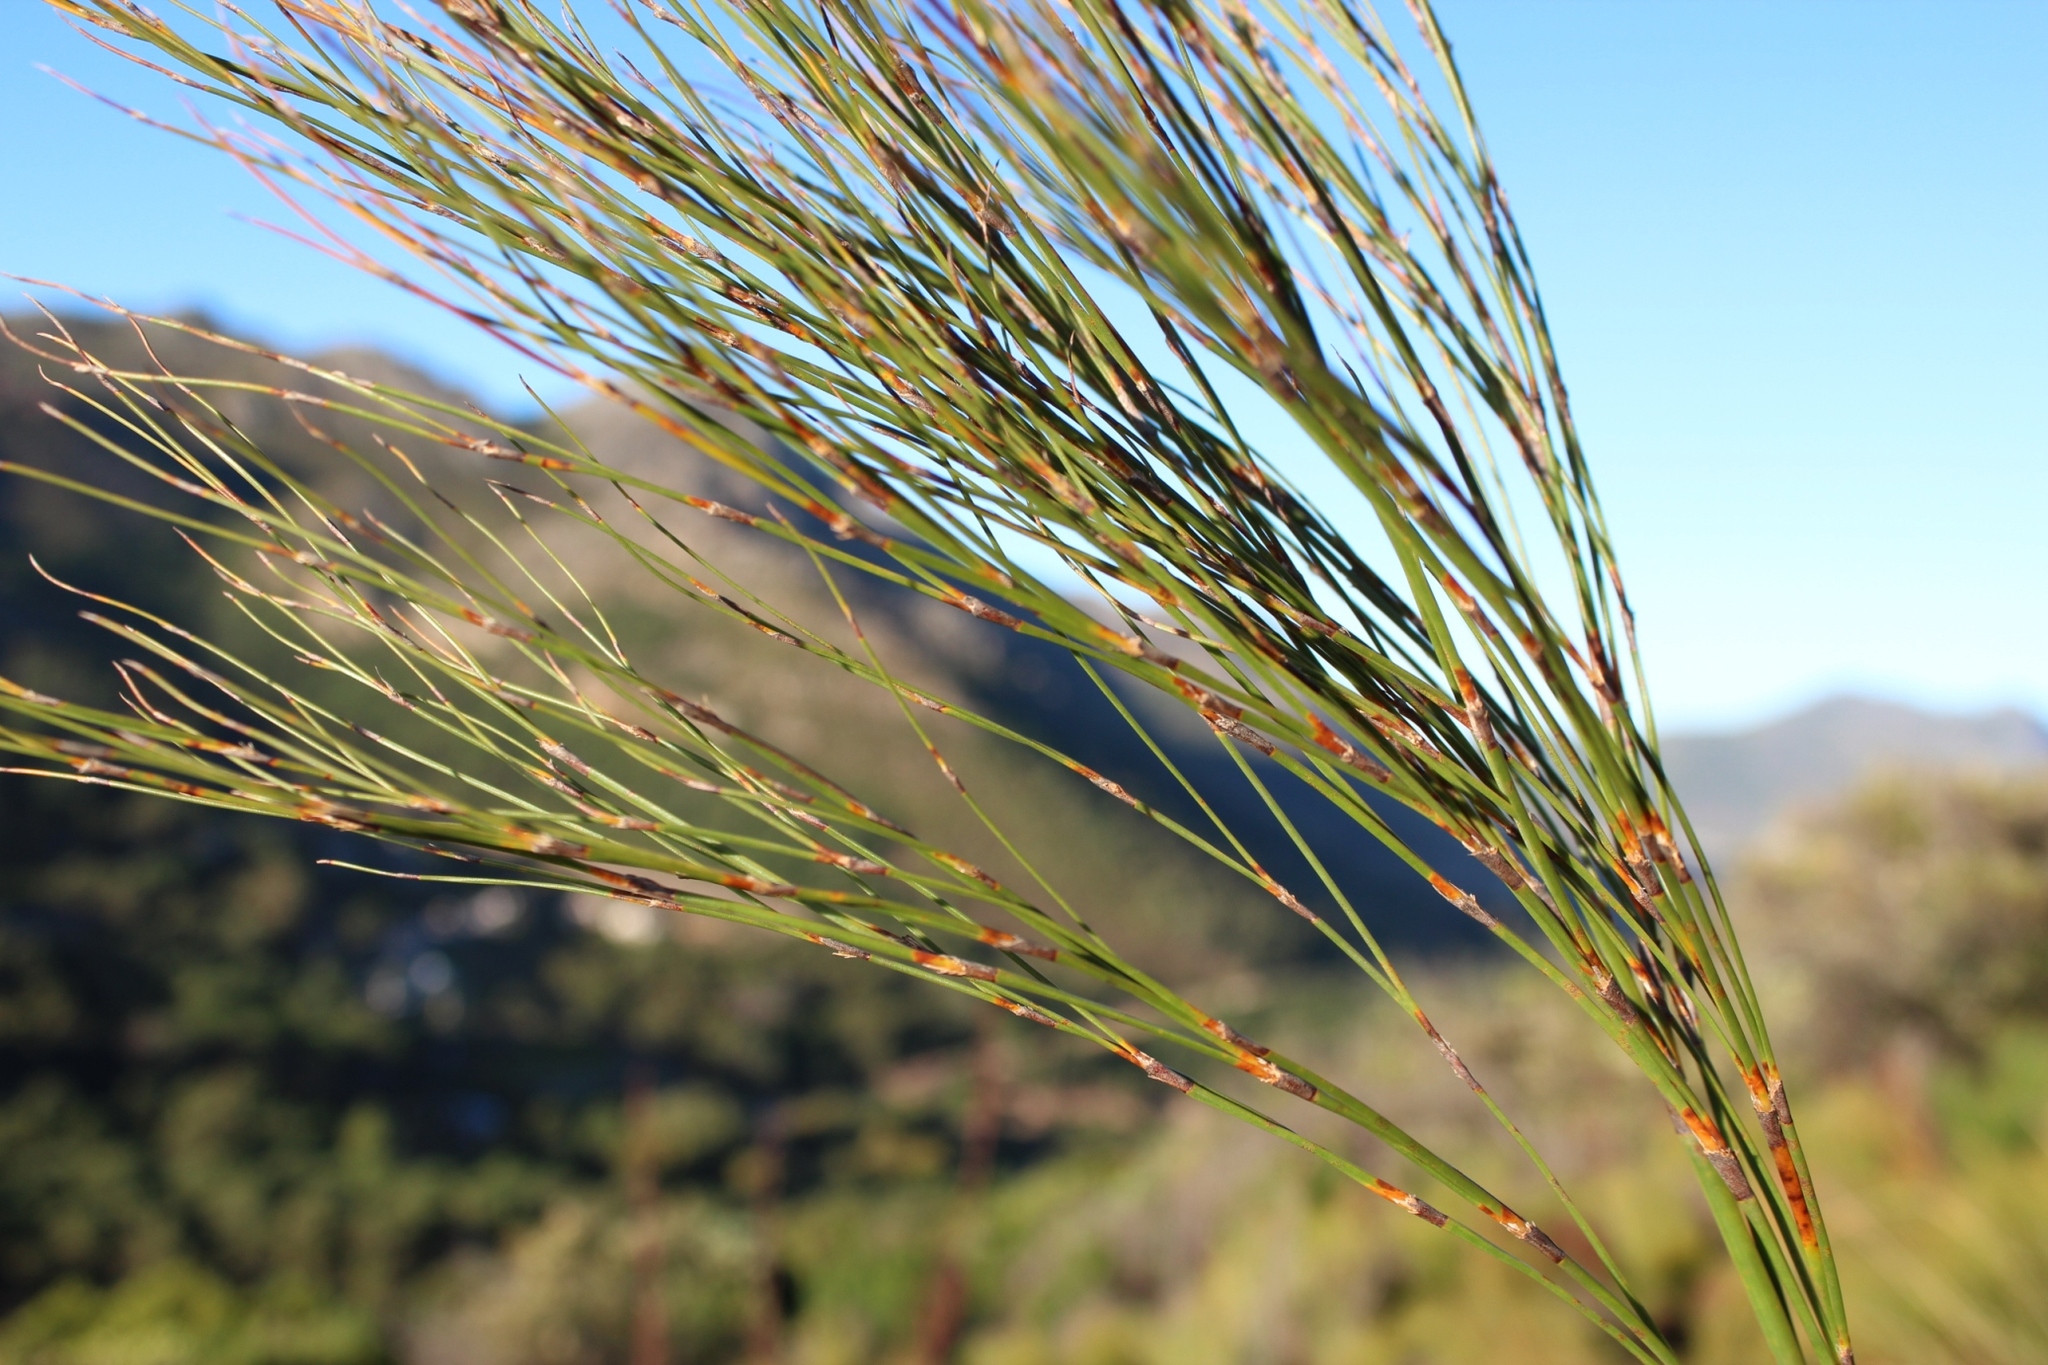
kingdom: Plantae
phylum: Tracheophyta
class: Liliopsida
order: Poales
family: Restionaceae
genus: Cannomois
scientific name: Cannomois virgata
